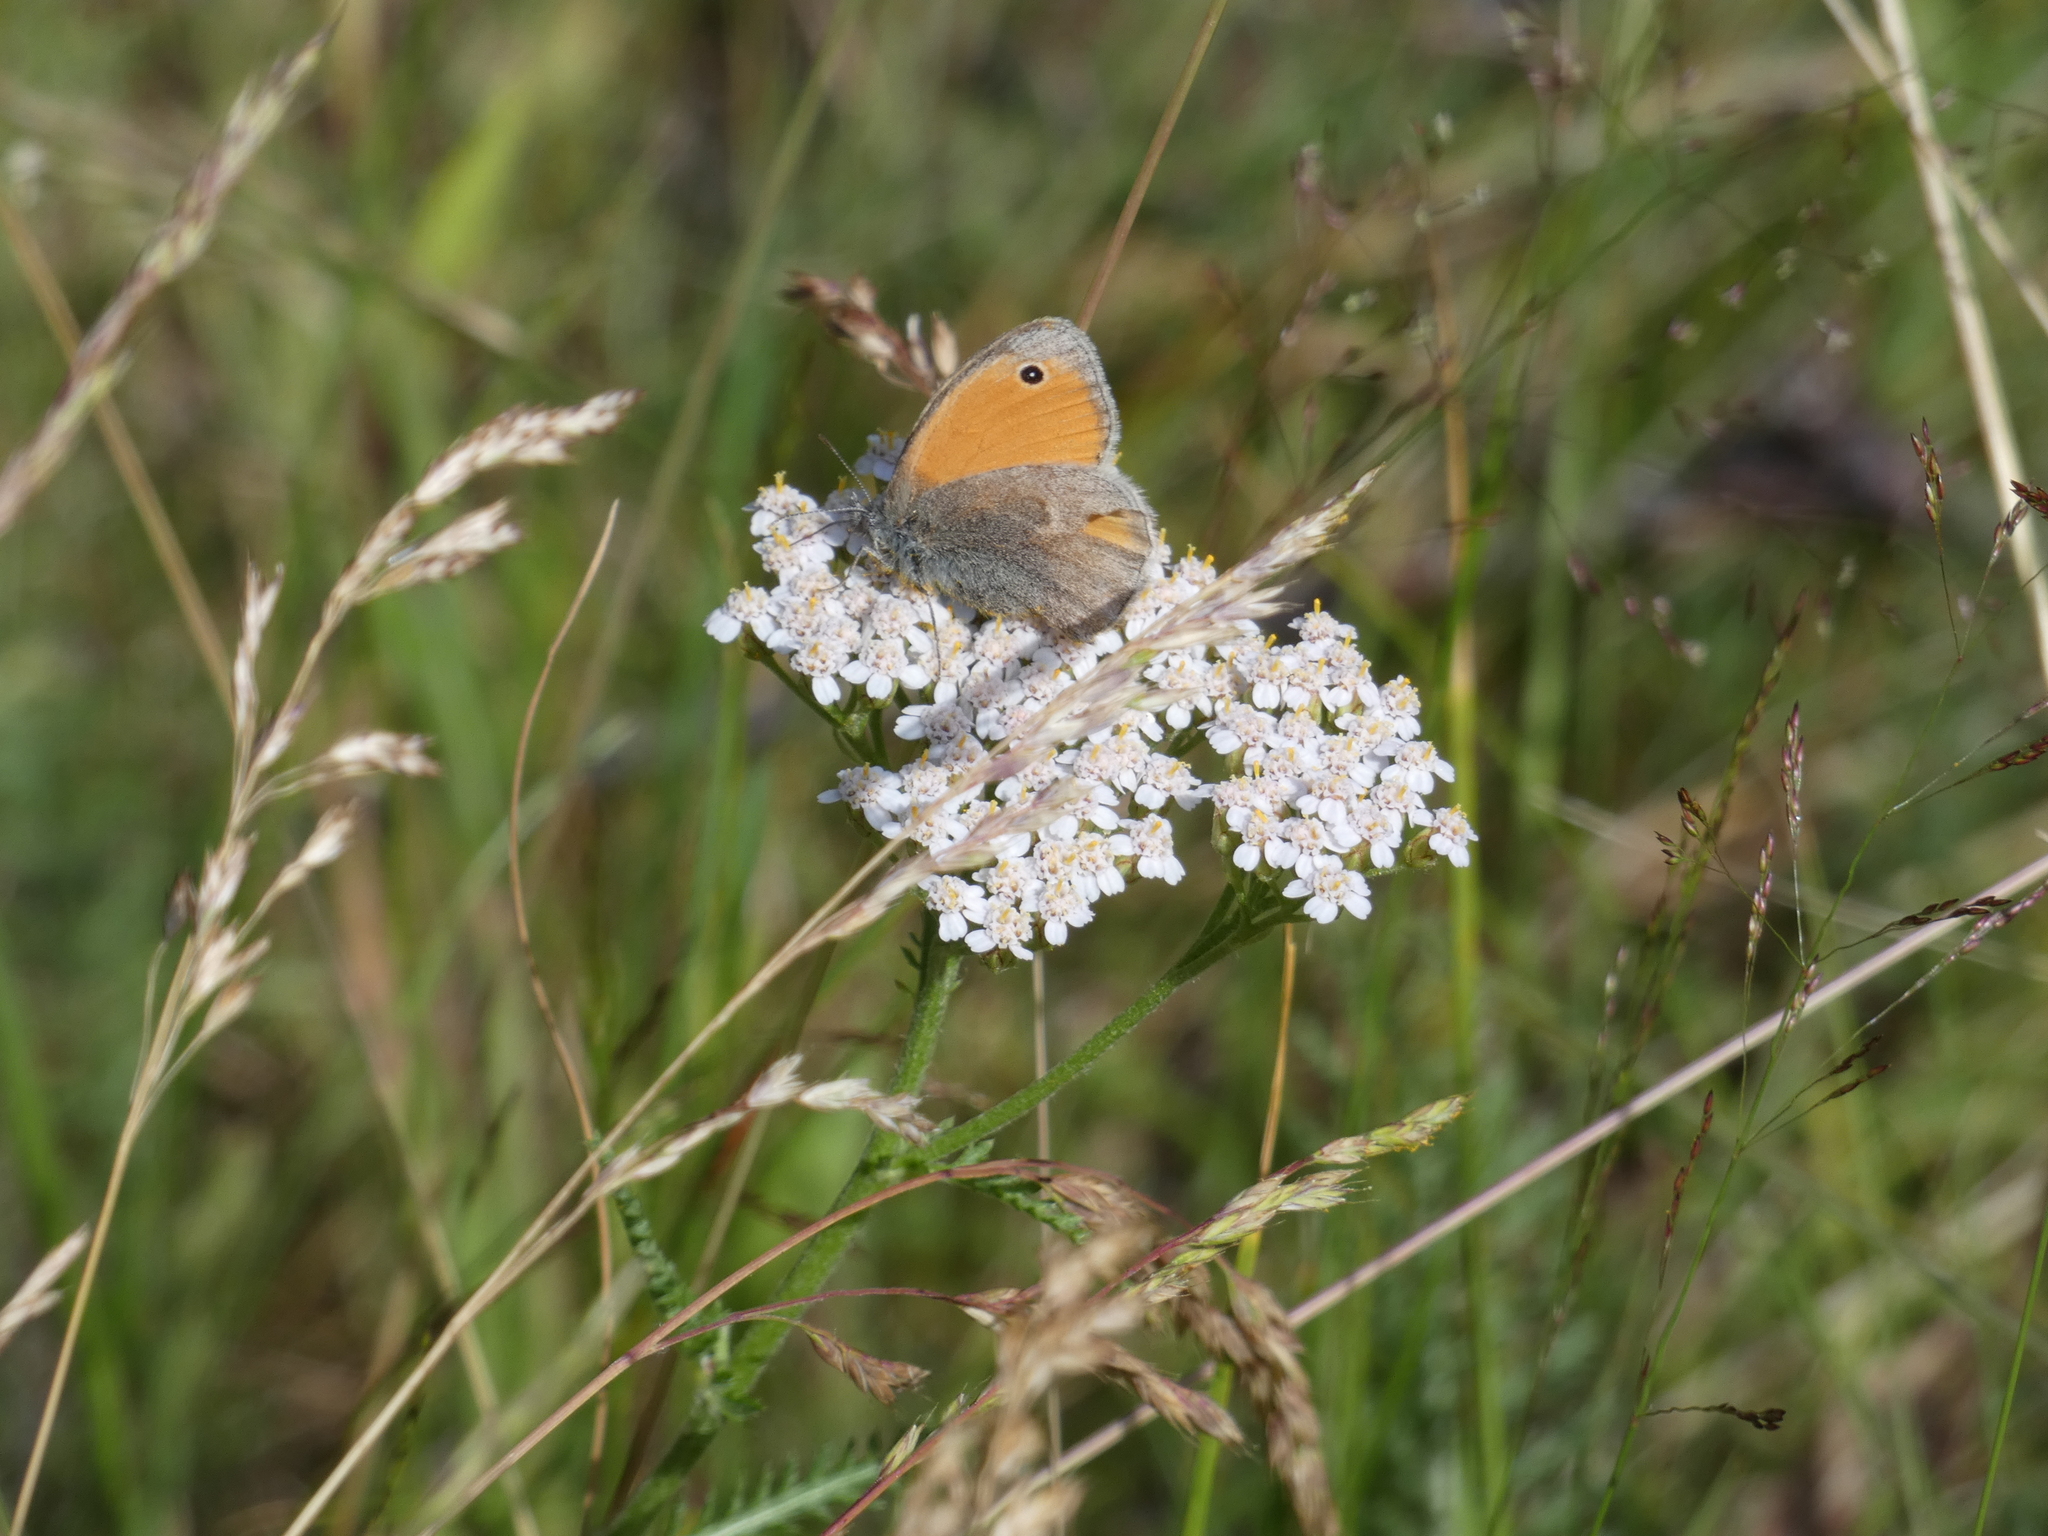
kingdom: Animalia
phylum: Arthropoda
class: Insecta
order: Lepidoptera
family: Nymphalidae
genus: Coenonympha
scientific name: Coenonympha pamphilus
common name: Small heath
